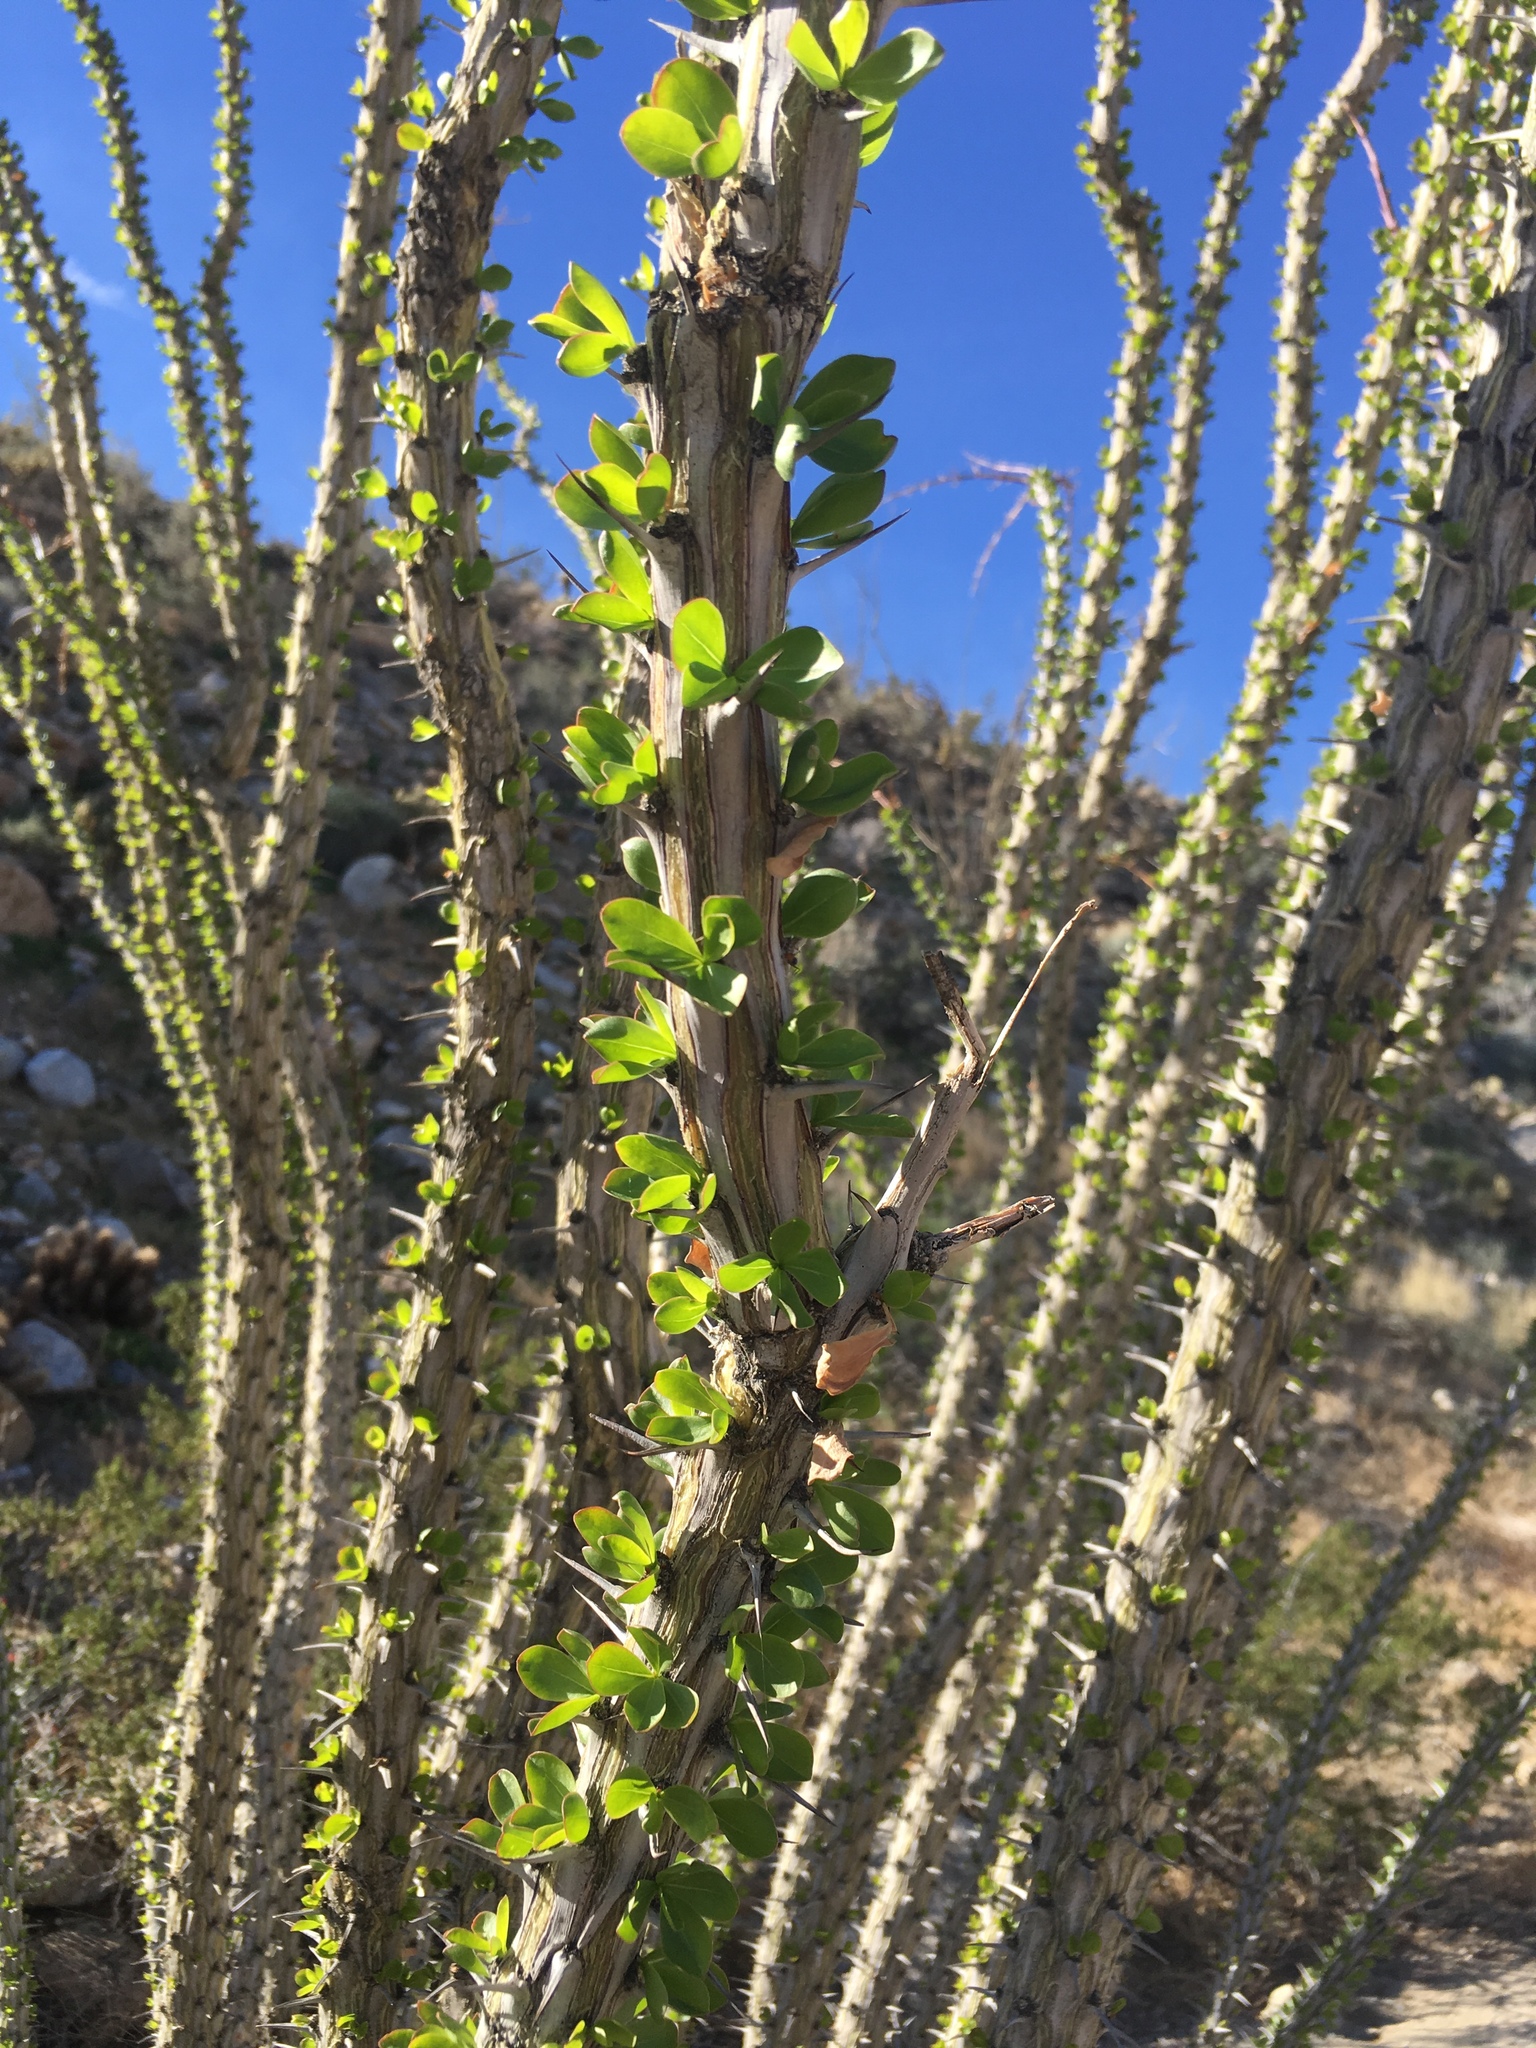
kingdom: Plantae
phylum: Tracheophyta
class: Magnoliopsida
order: Ericales
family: Fouquieriaceae
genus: Fouquieria
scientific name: Fouquieria splendens
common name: Vine-cactus
